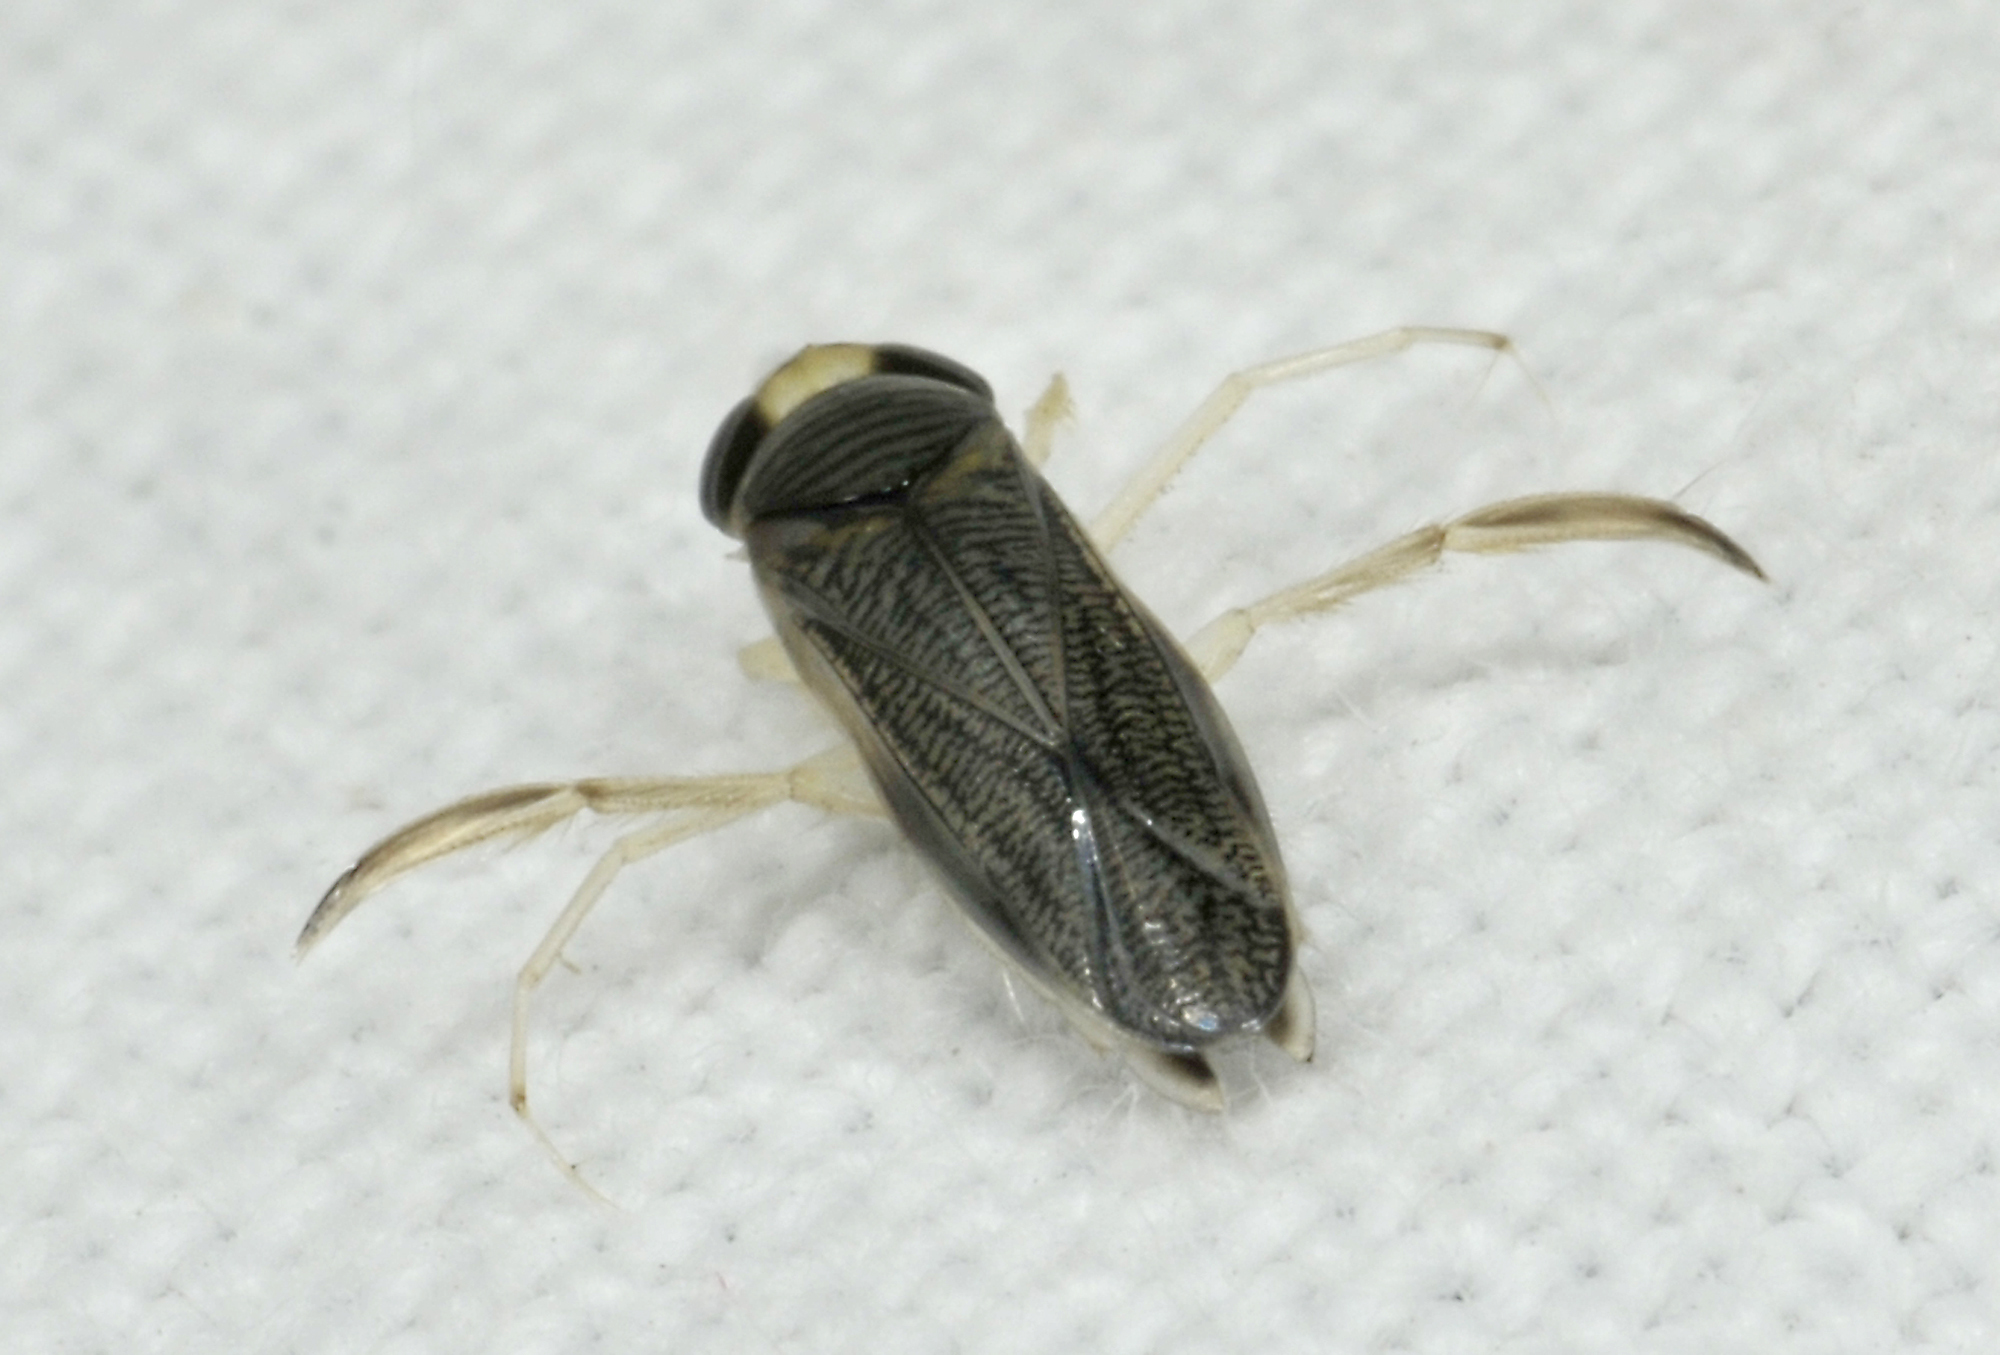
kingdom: Animalia
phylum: Arthropoda
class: Insecta
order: Hemiptera
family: Corixidae
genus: Sigara
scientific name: Sigara lateralis
